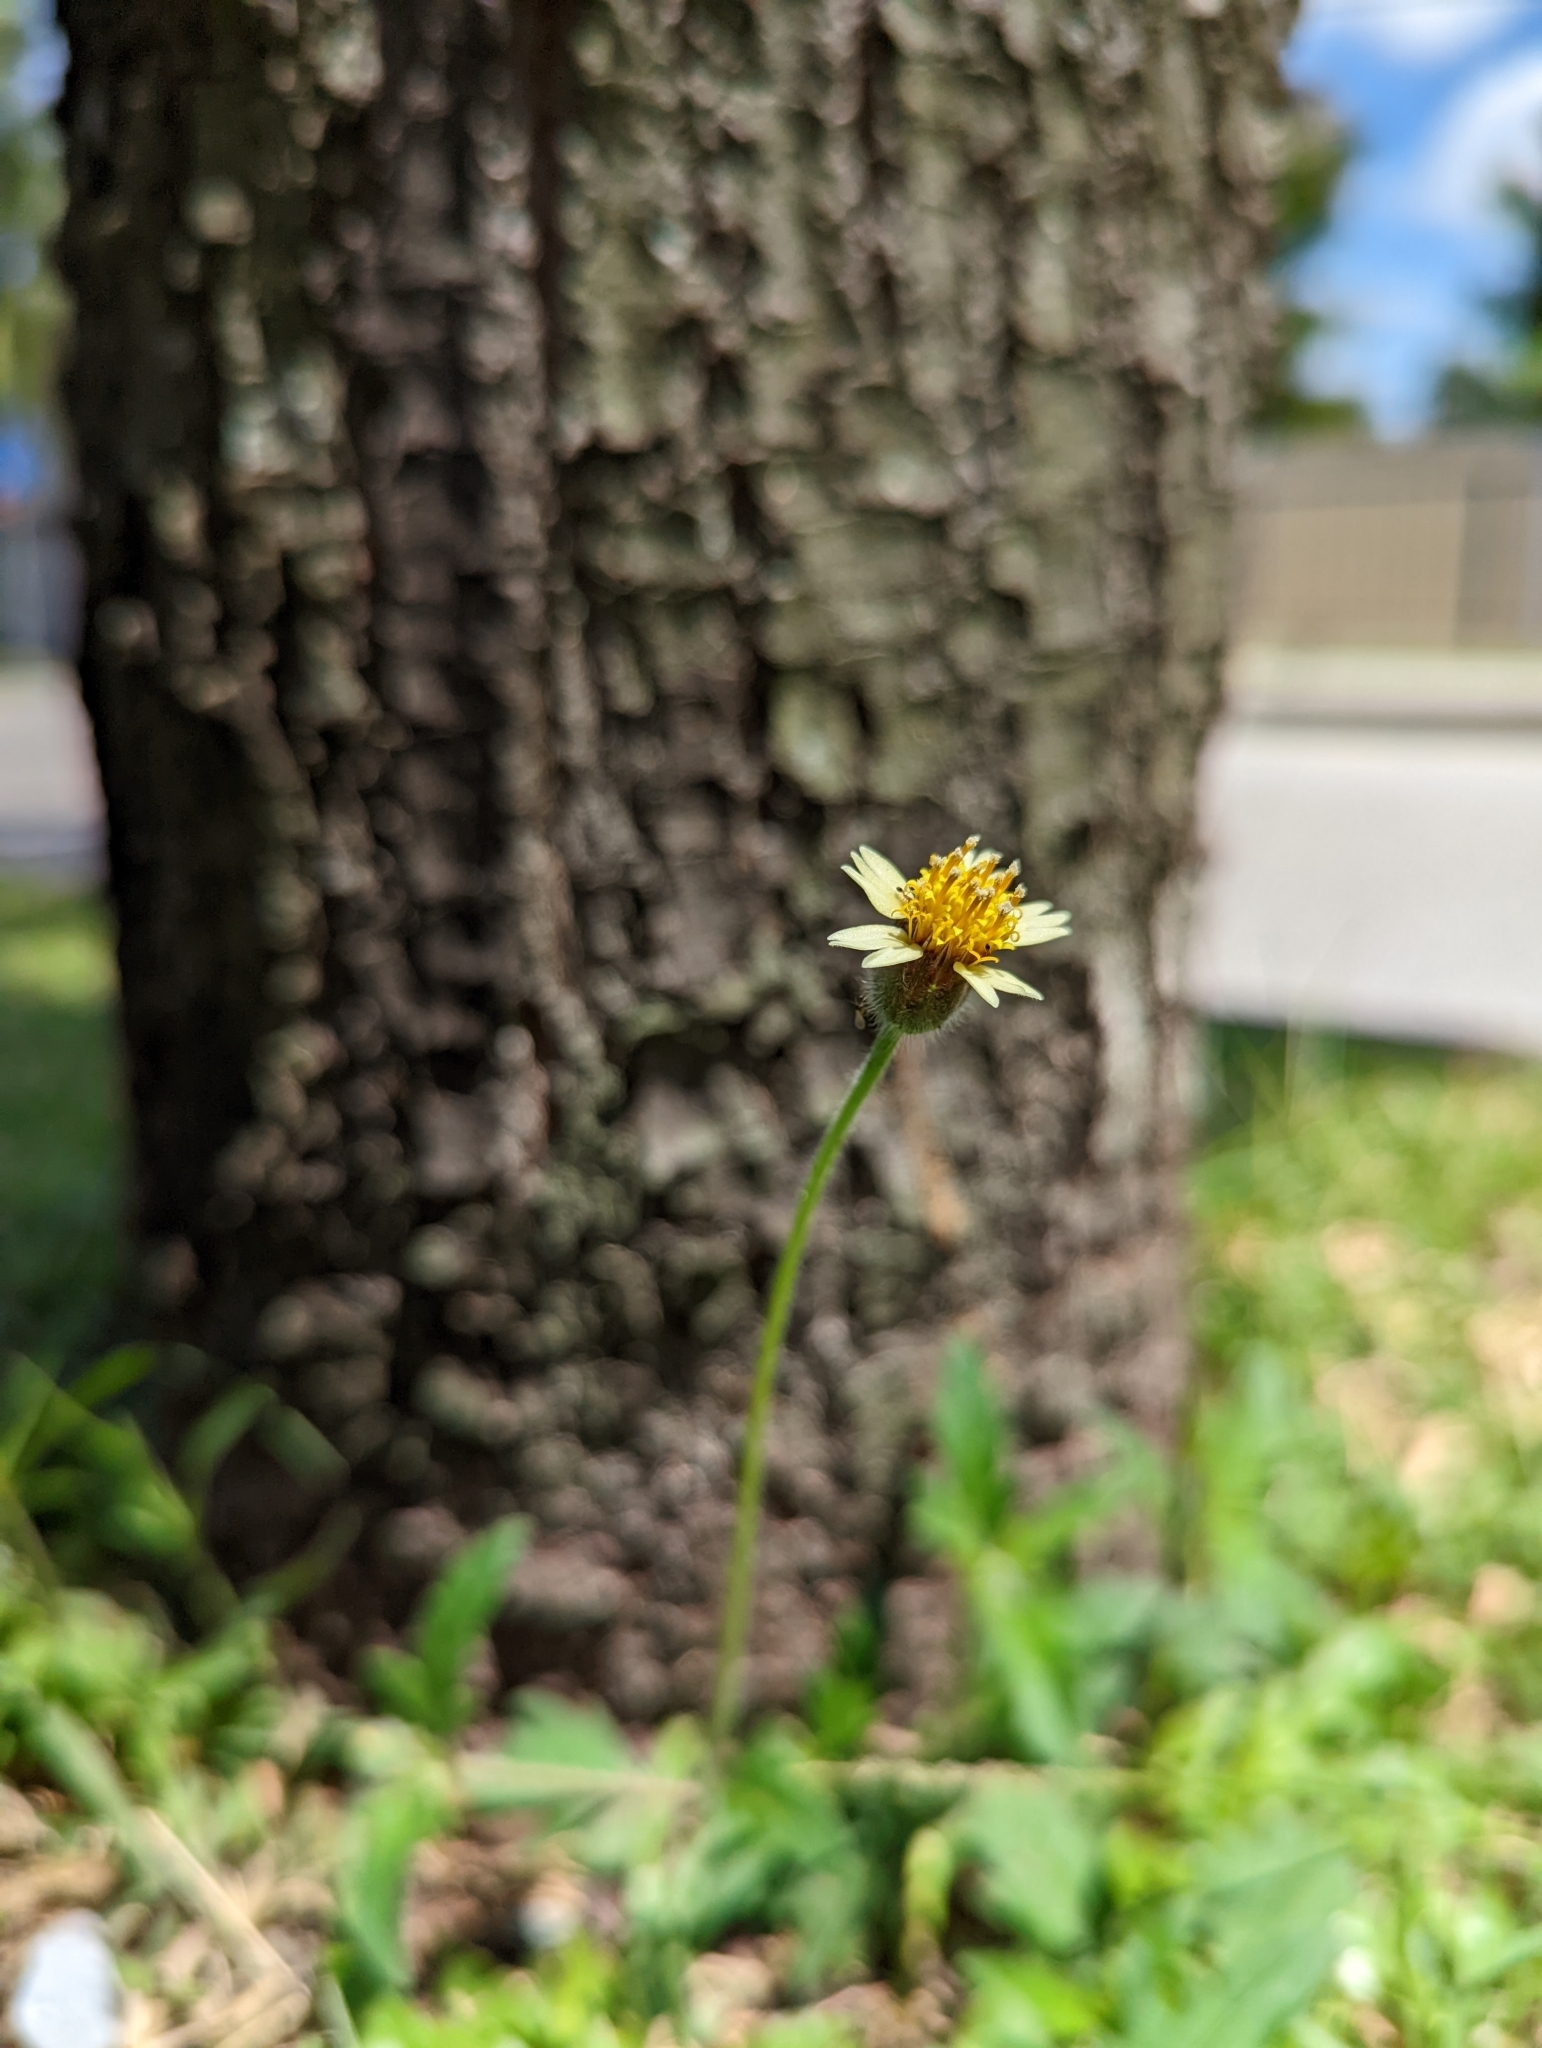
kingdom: Plantae
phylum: Tracheophyta
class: Magnoliopsida
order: Asterales
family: Asteraceae
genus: Tridax
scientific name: Tridax procumbens
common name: Coatbuttons
